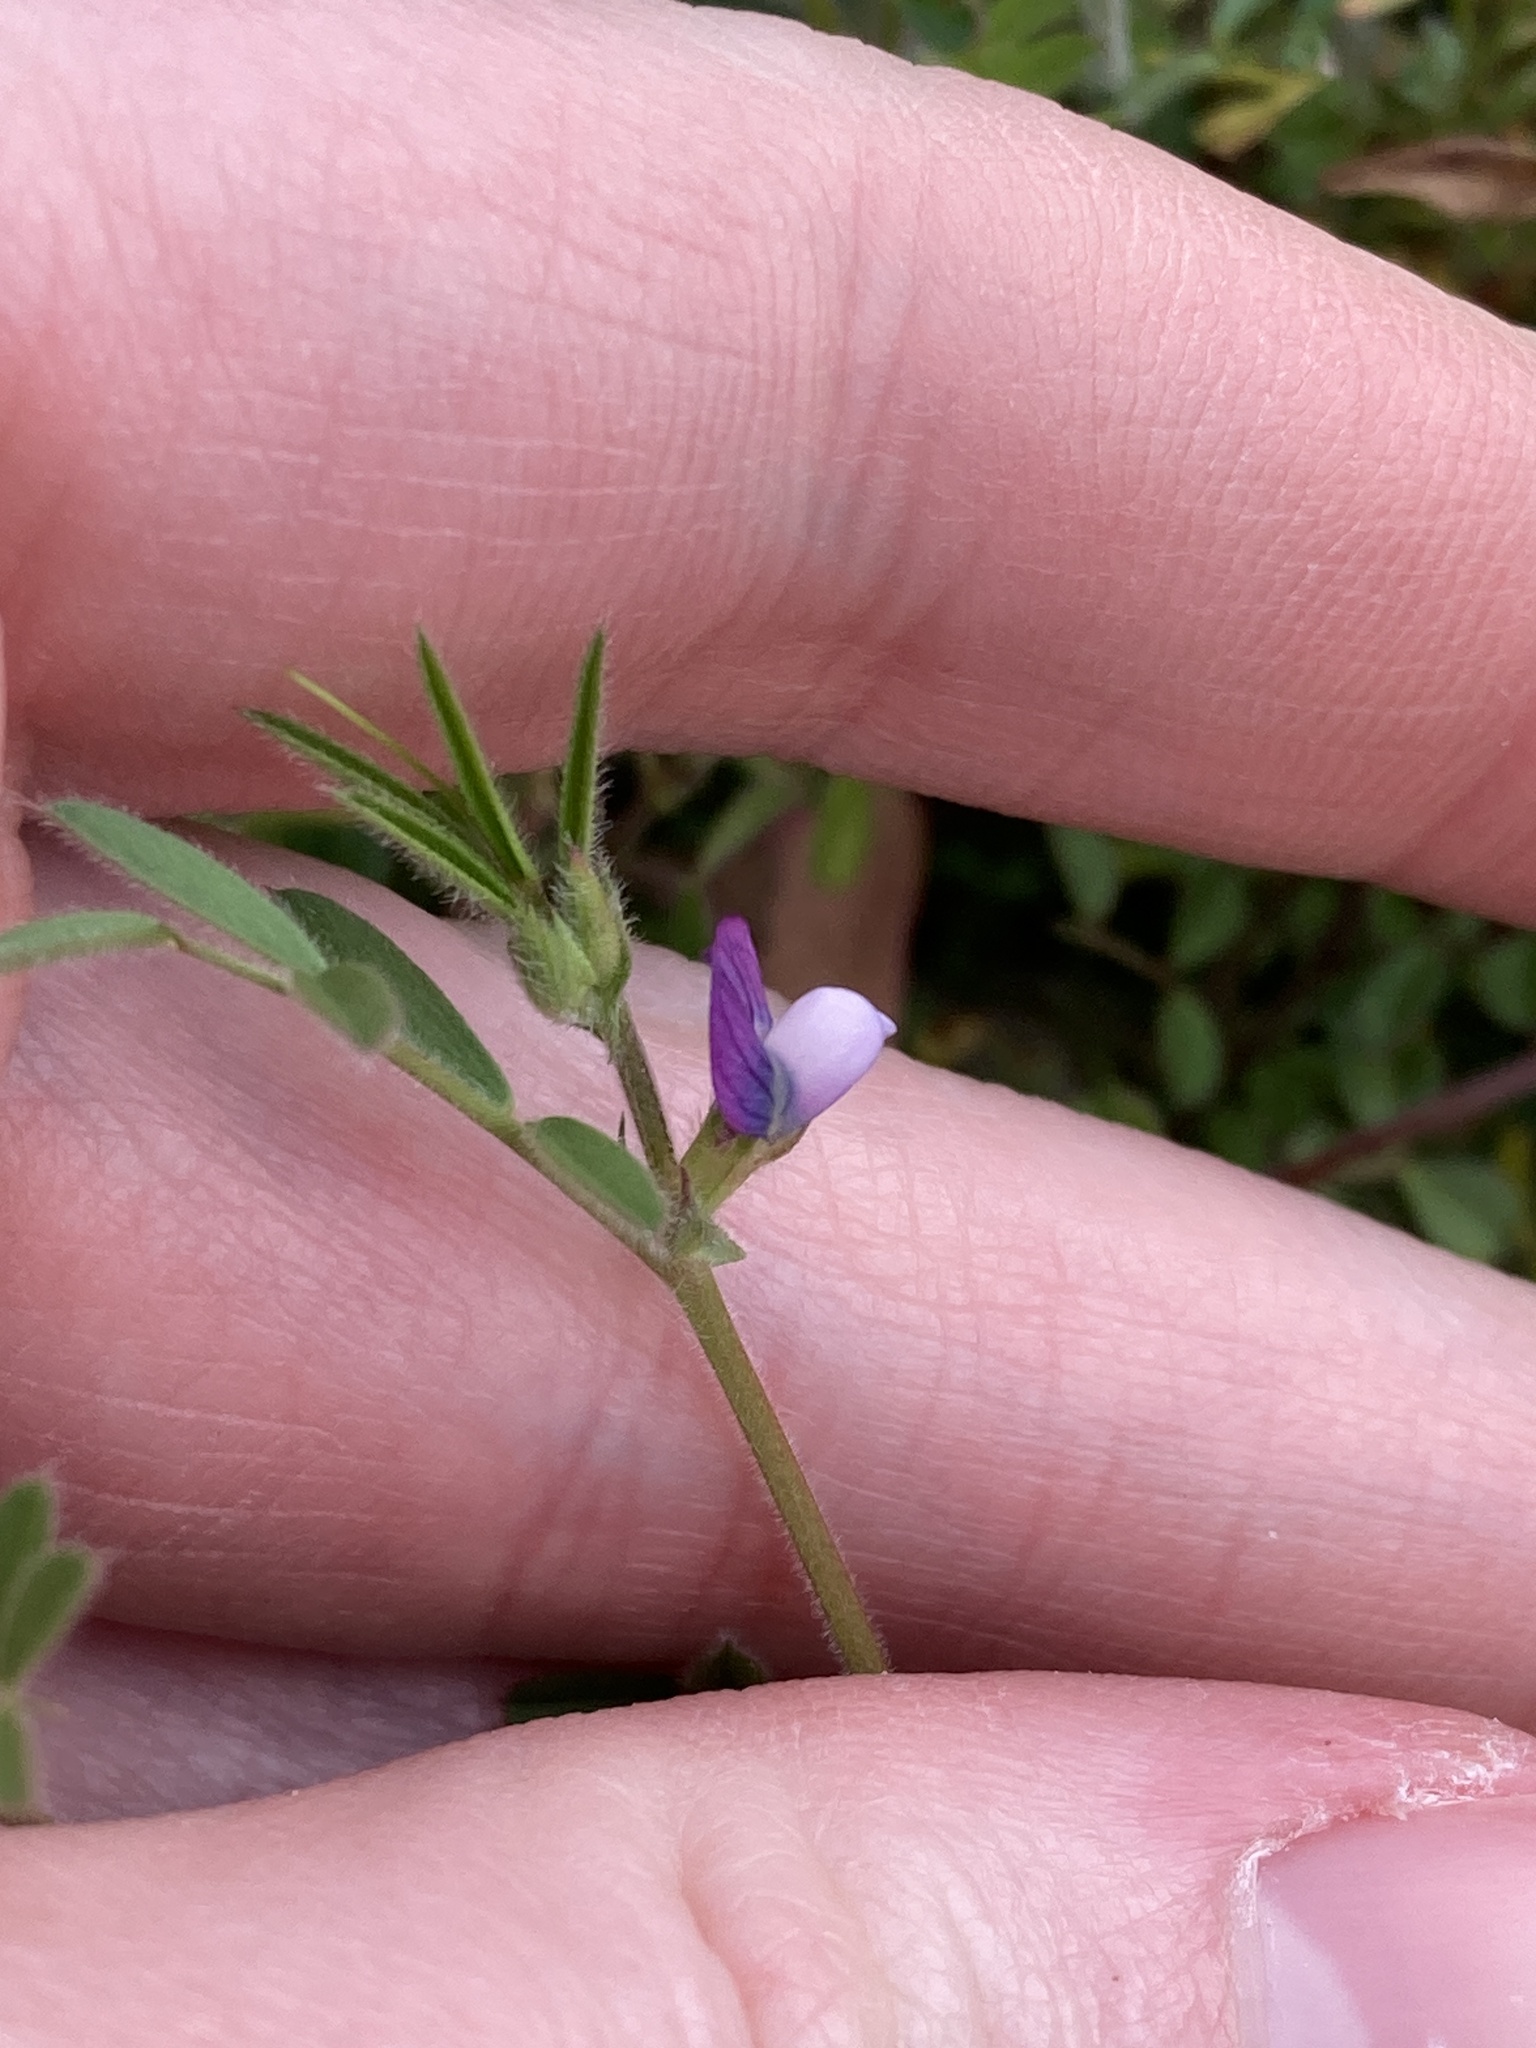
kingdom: Plantae
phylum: Tracheophyta
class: Magnoliopsida
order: Fabales
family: Fabaceae
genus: Vicia
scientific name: Vicia lathyroides
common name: Spring vetch
